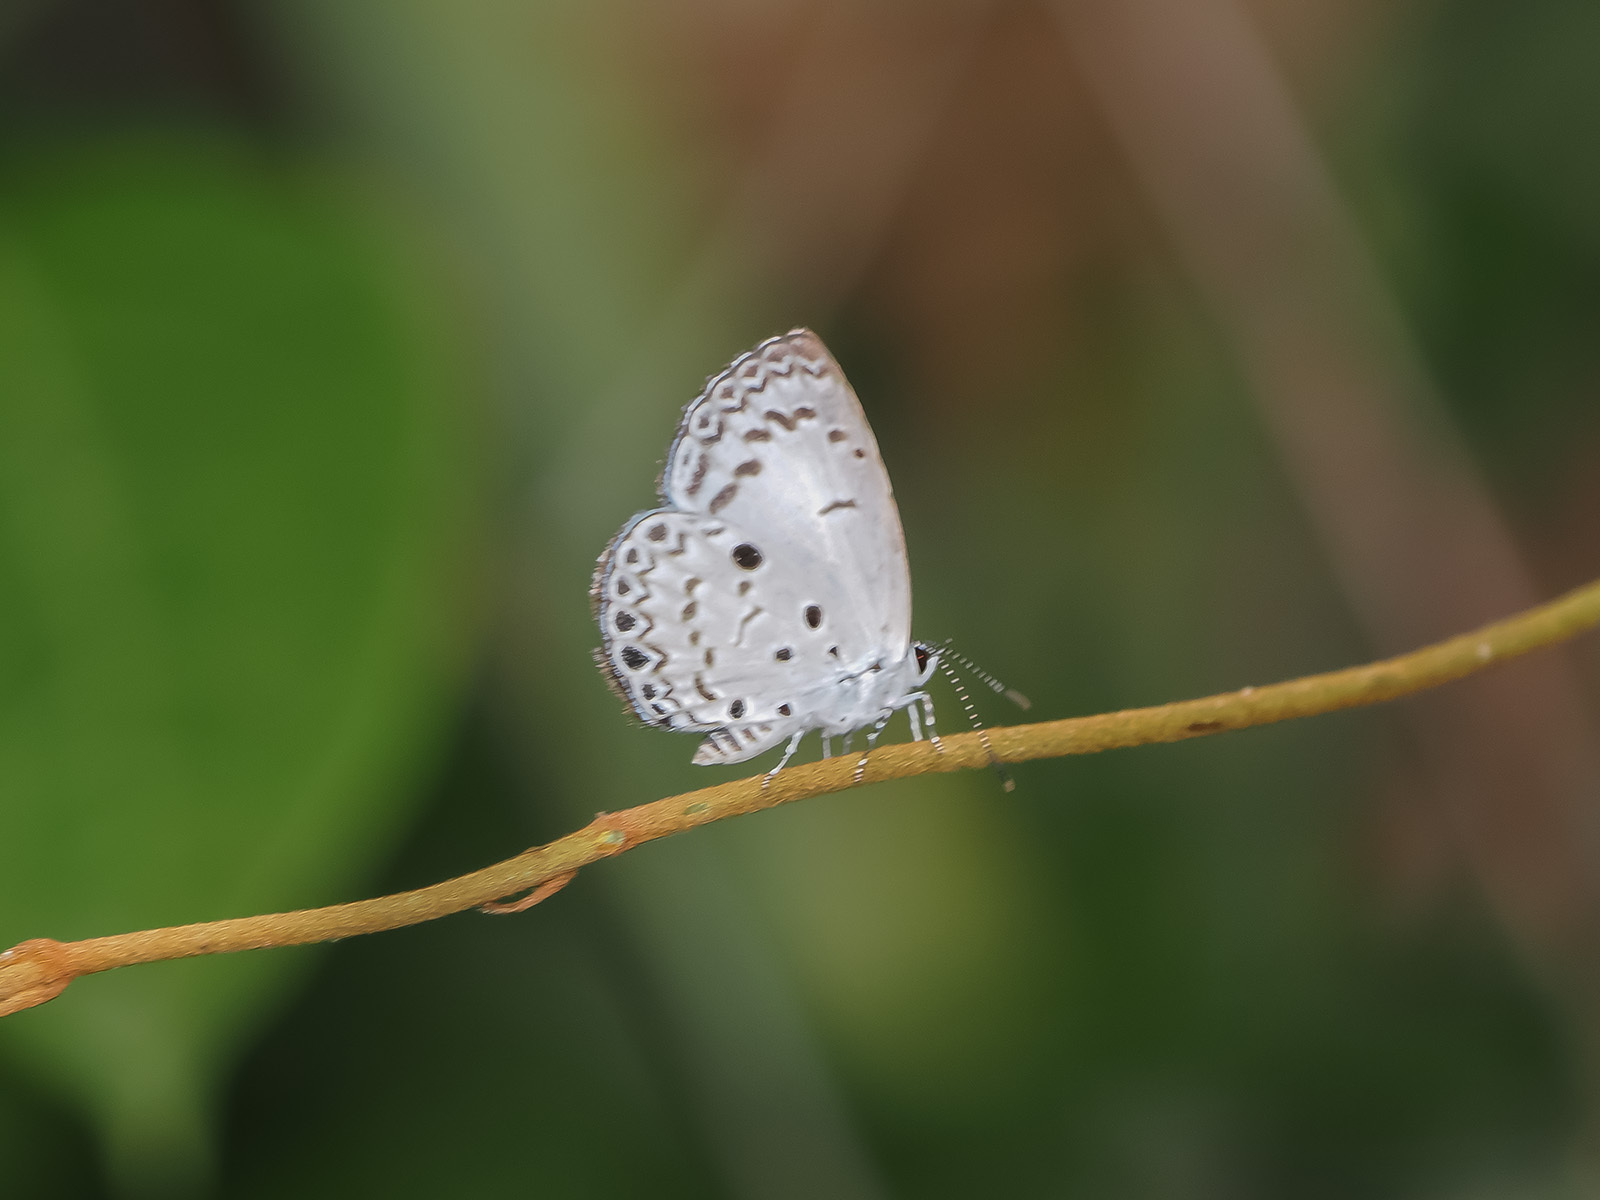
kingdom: Animalia
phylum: Arthropoda
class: Insecta
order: Lepidoptera
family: Lycaenidae
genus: Acytolepis
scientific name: Acytolepis puspa
